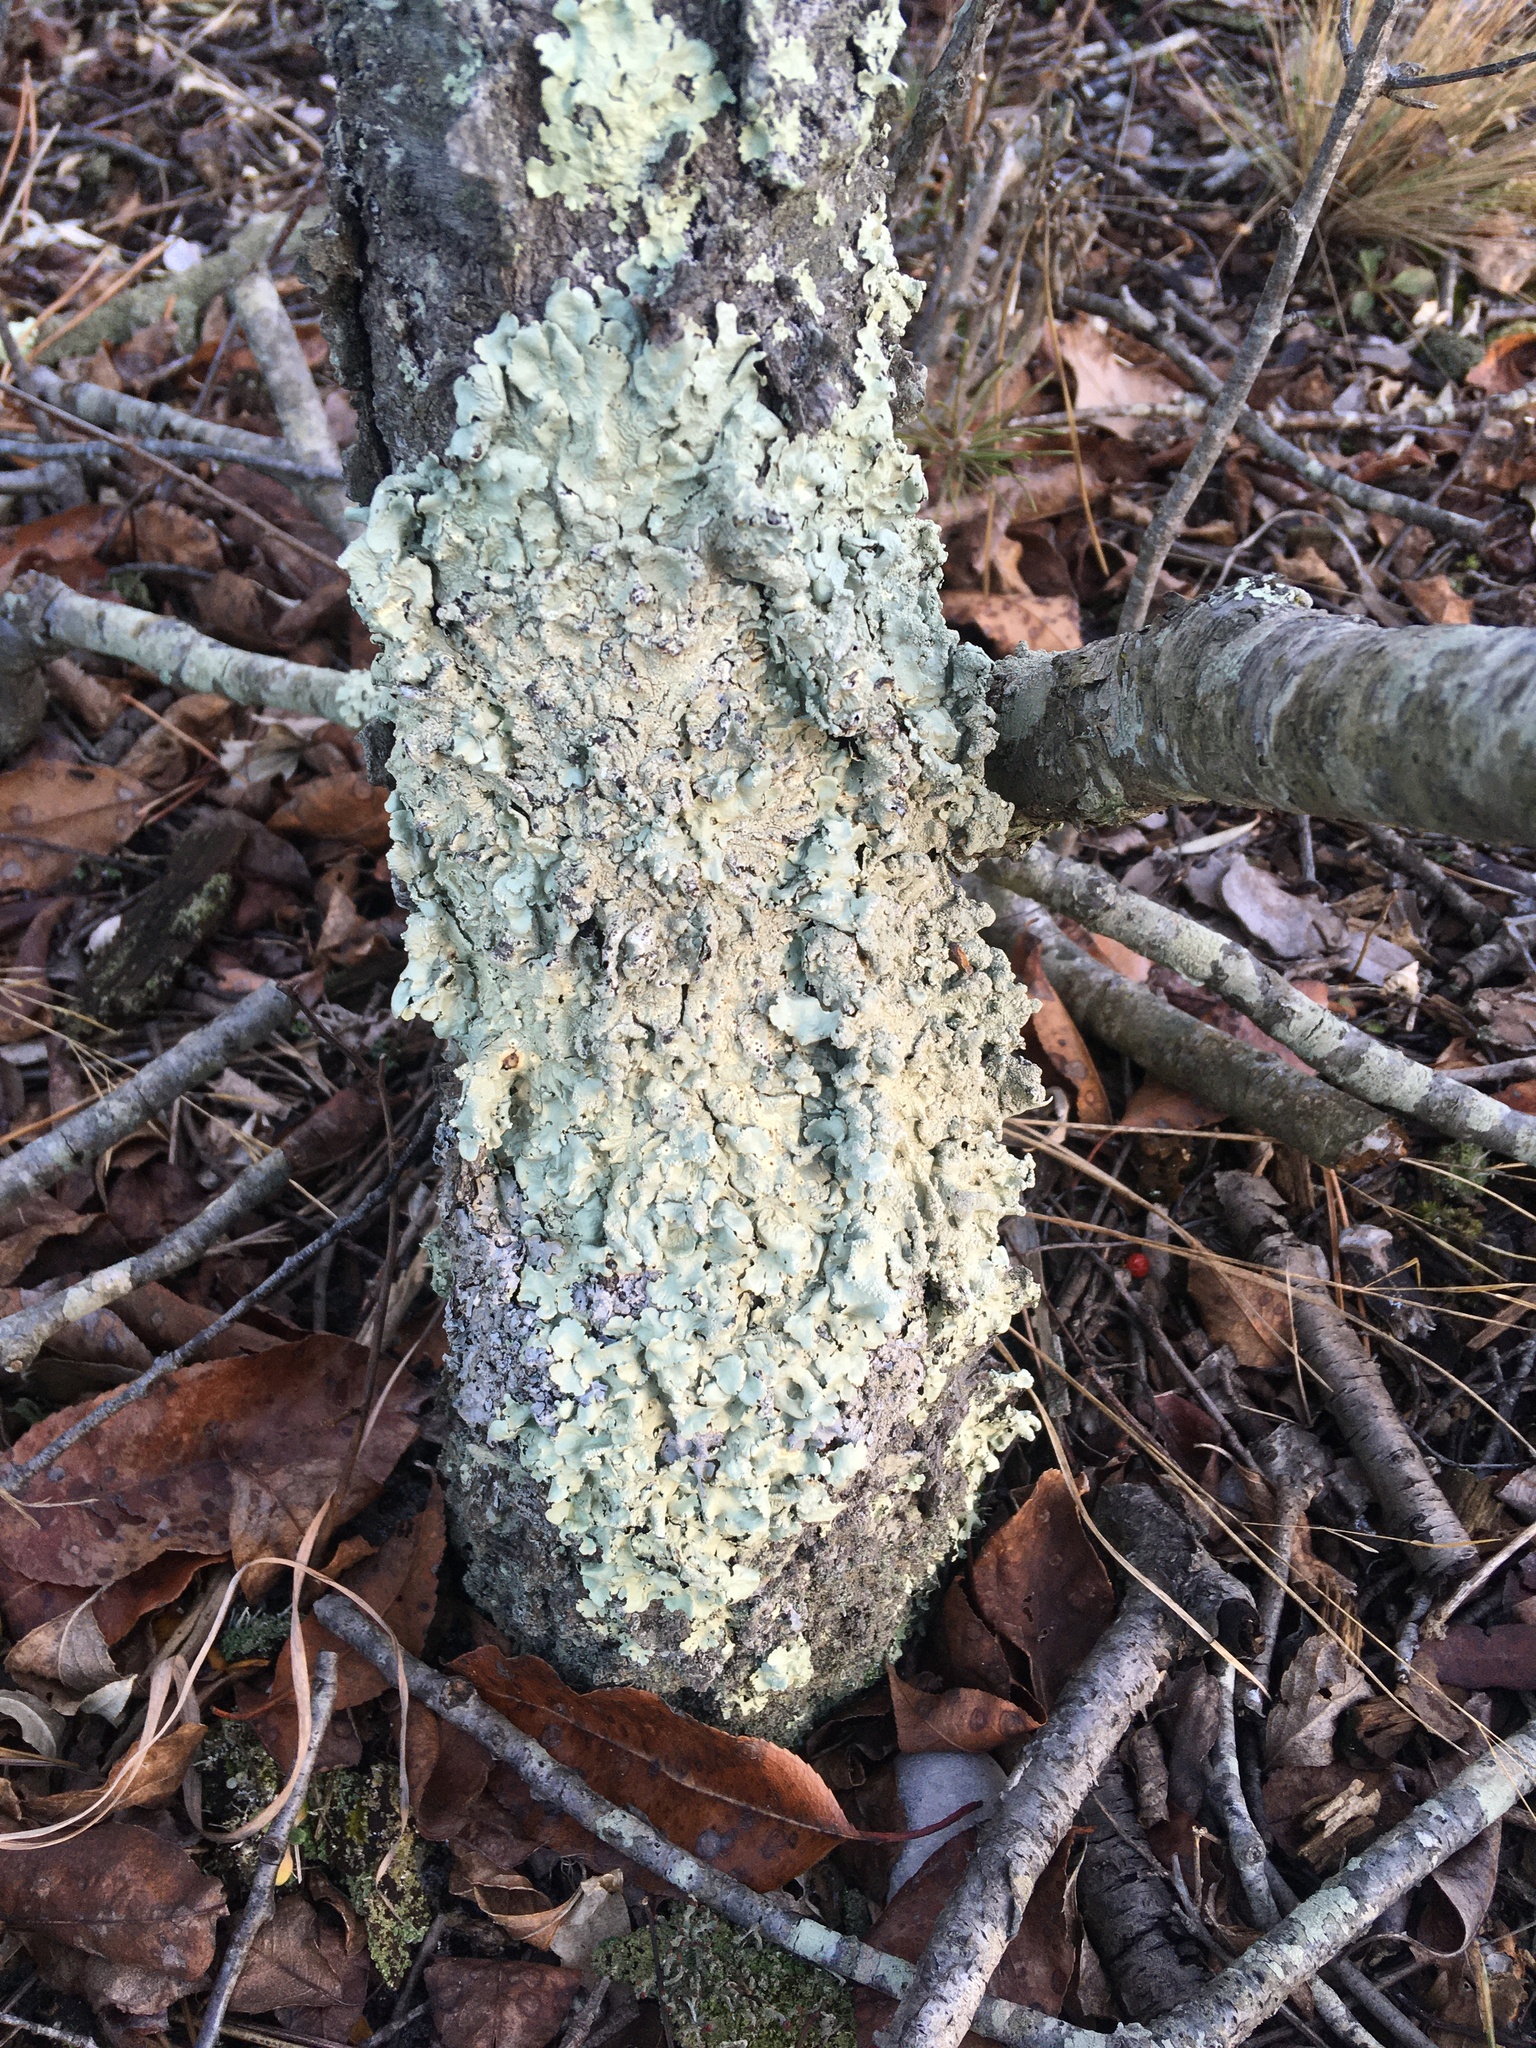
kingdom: Fungi
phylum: Ascomycota
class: Lecanoromycetes
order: Lecanorales
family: Parmeliaceae
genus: Flavoparmelia
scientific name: Flavoparmelia caperata
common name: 40-mile per hour lichen
